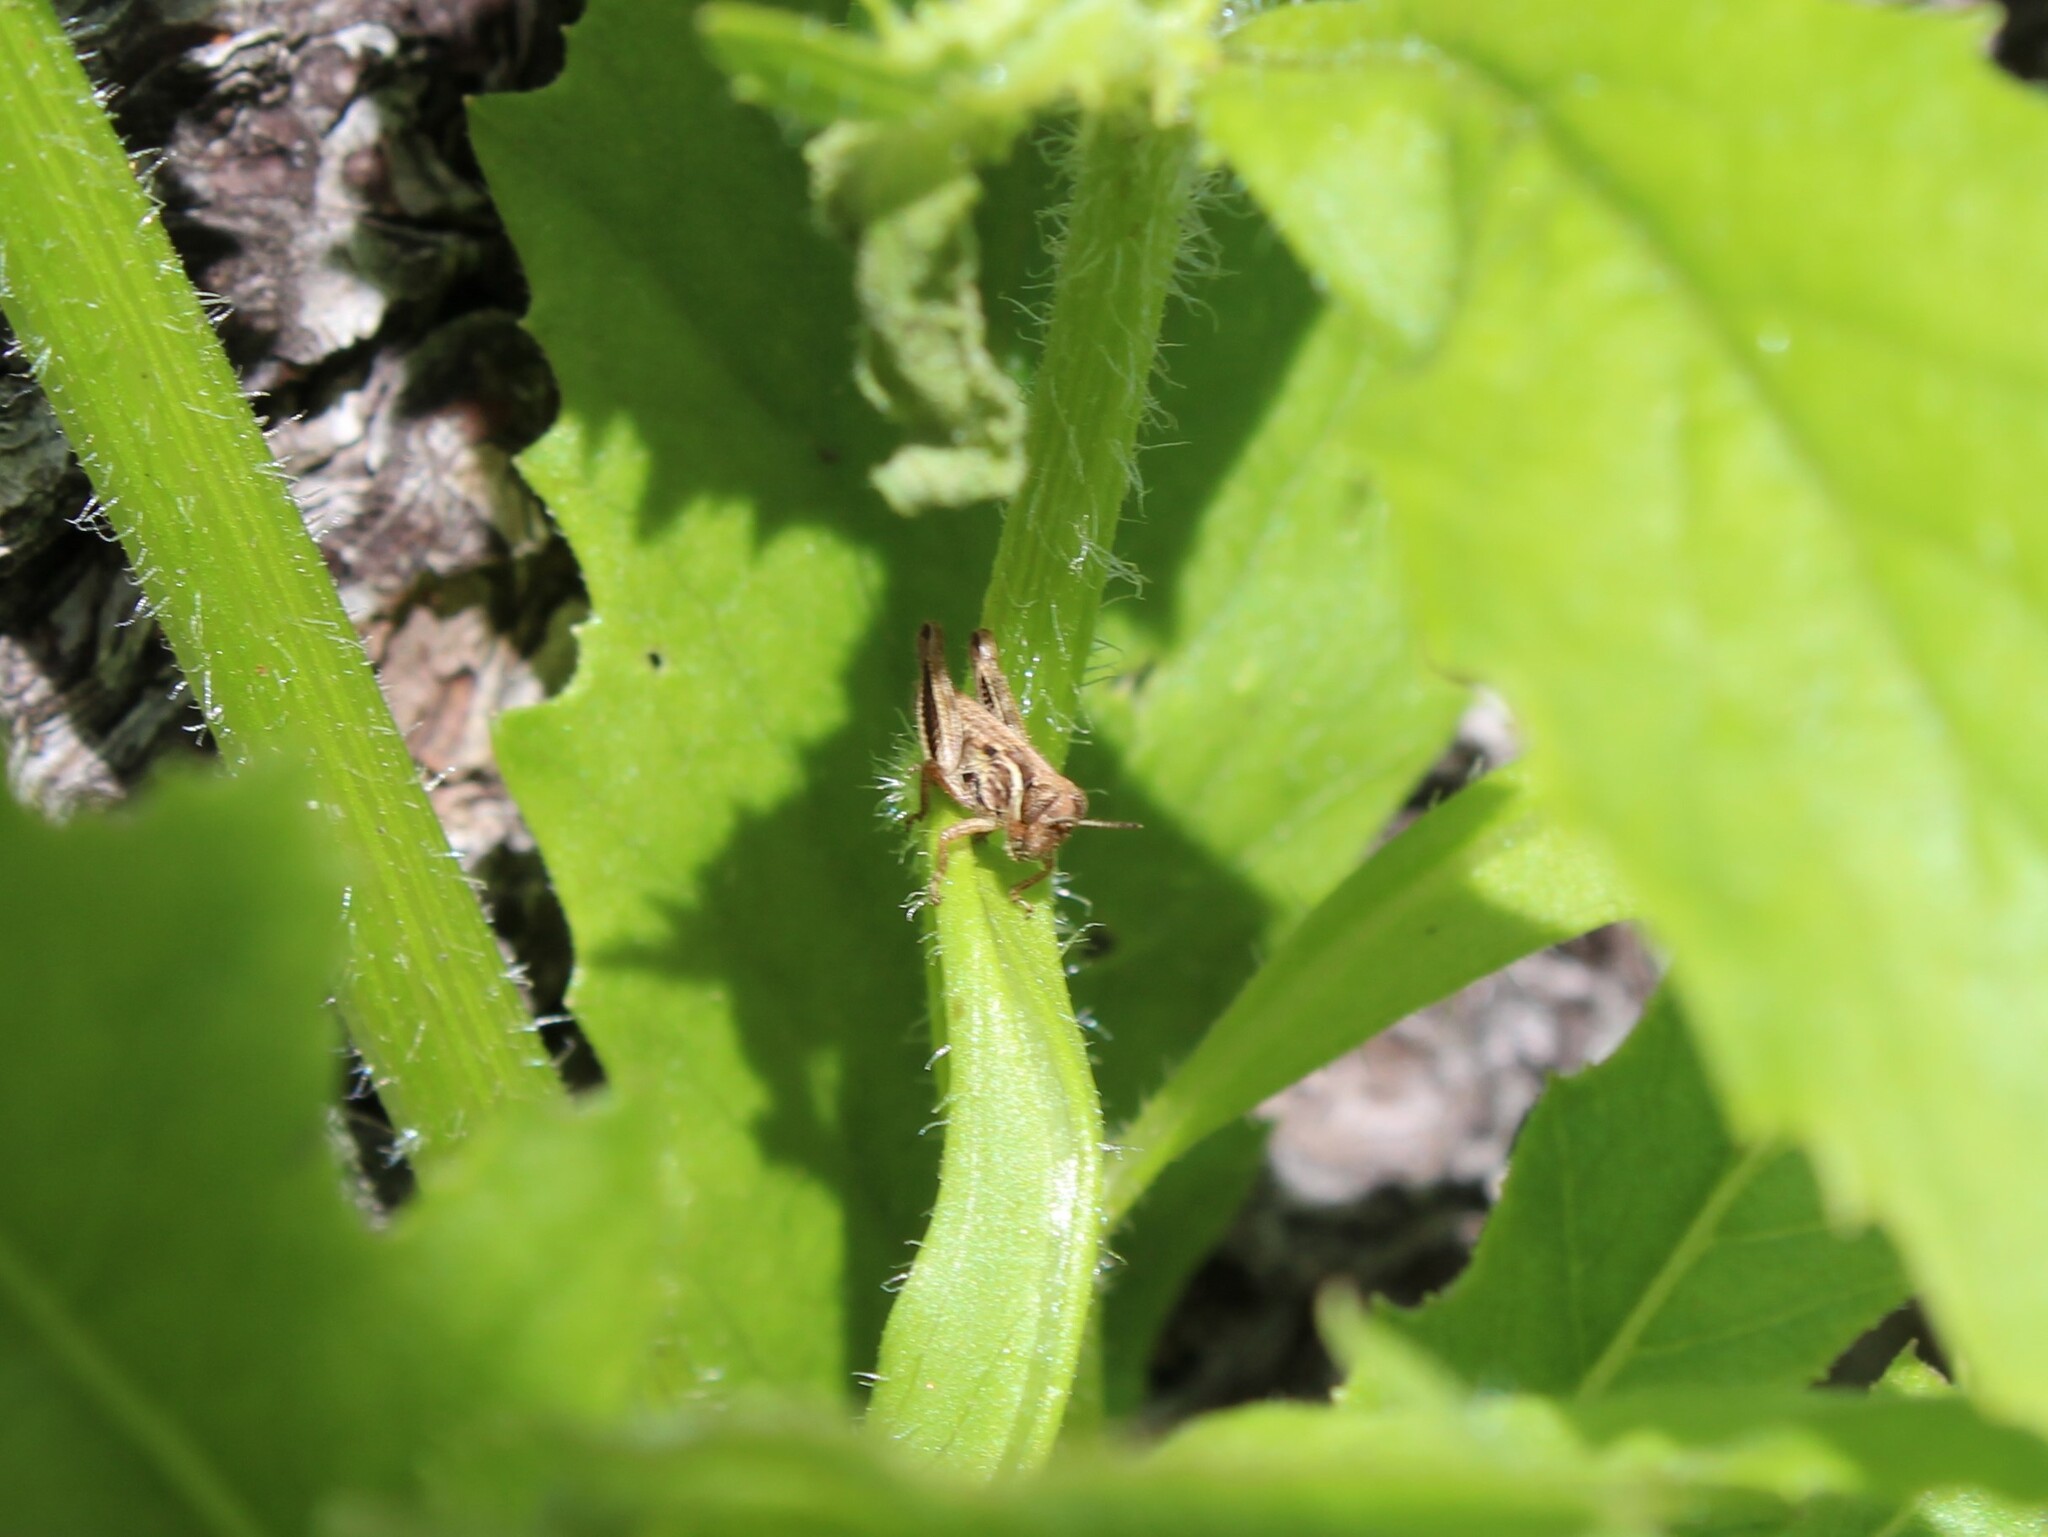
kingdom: Animalia
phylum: Arthropoda
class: Insecta
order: Orthoptera
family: Acrididae
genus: Melanoplus
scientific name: Melanoplus
